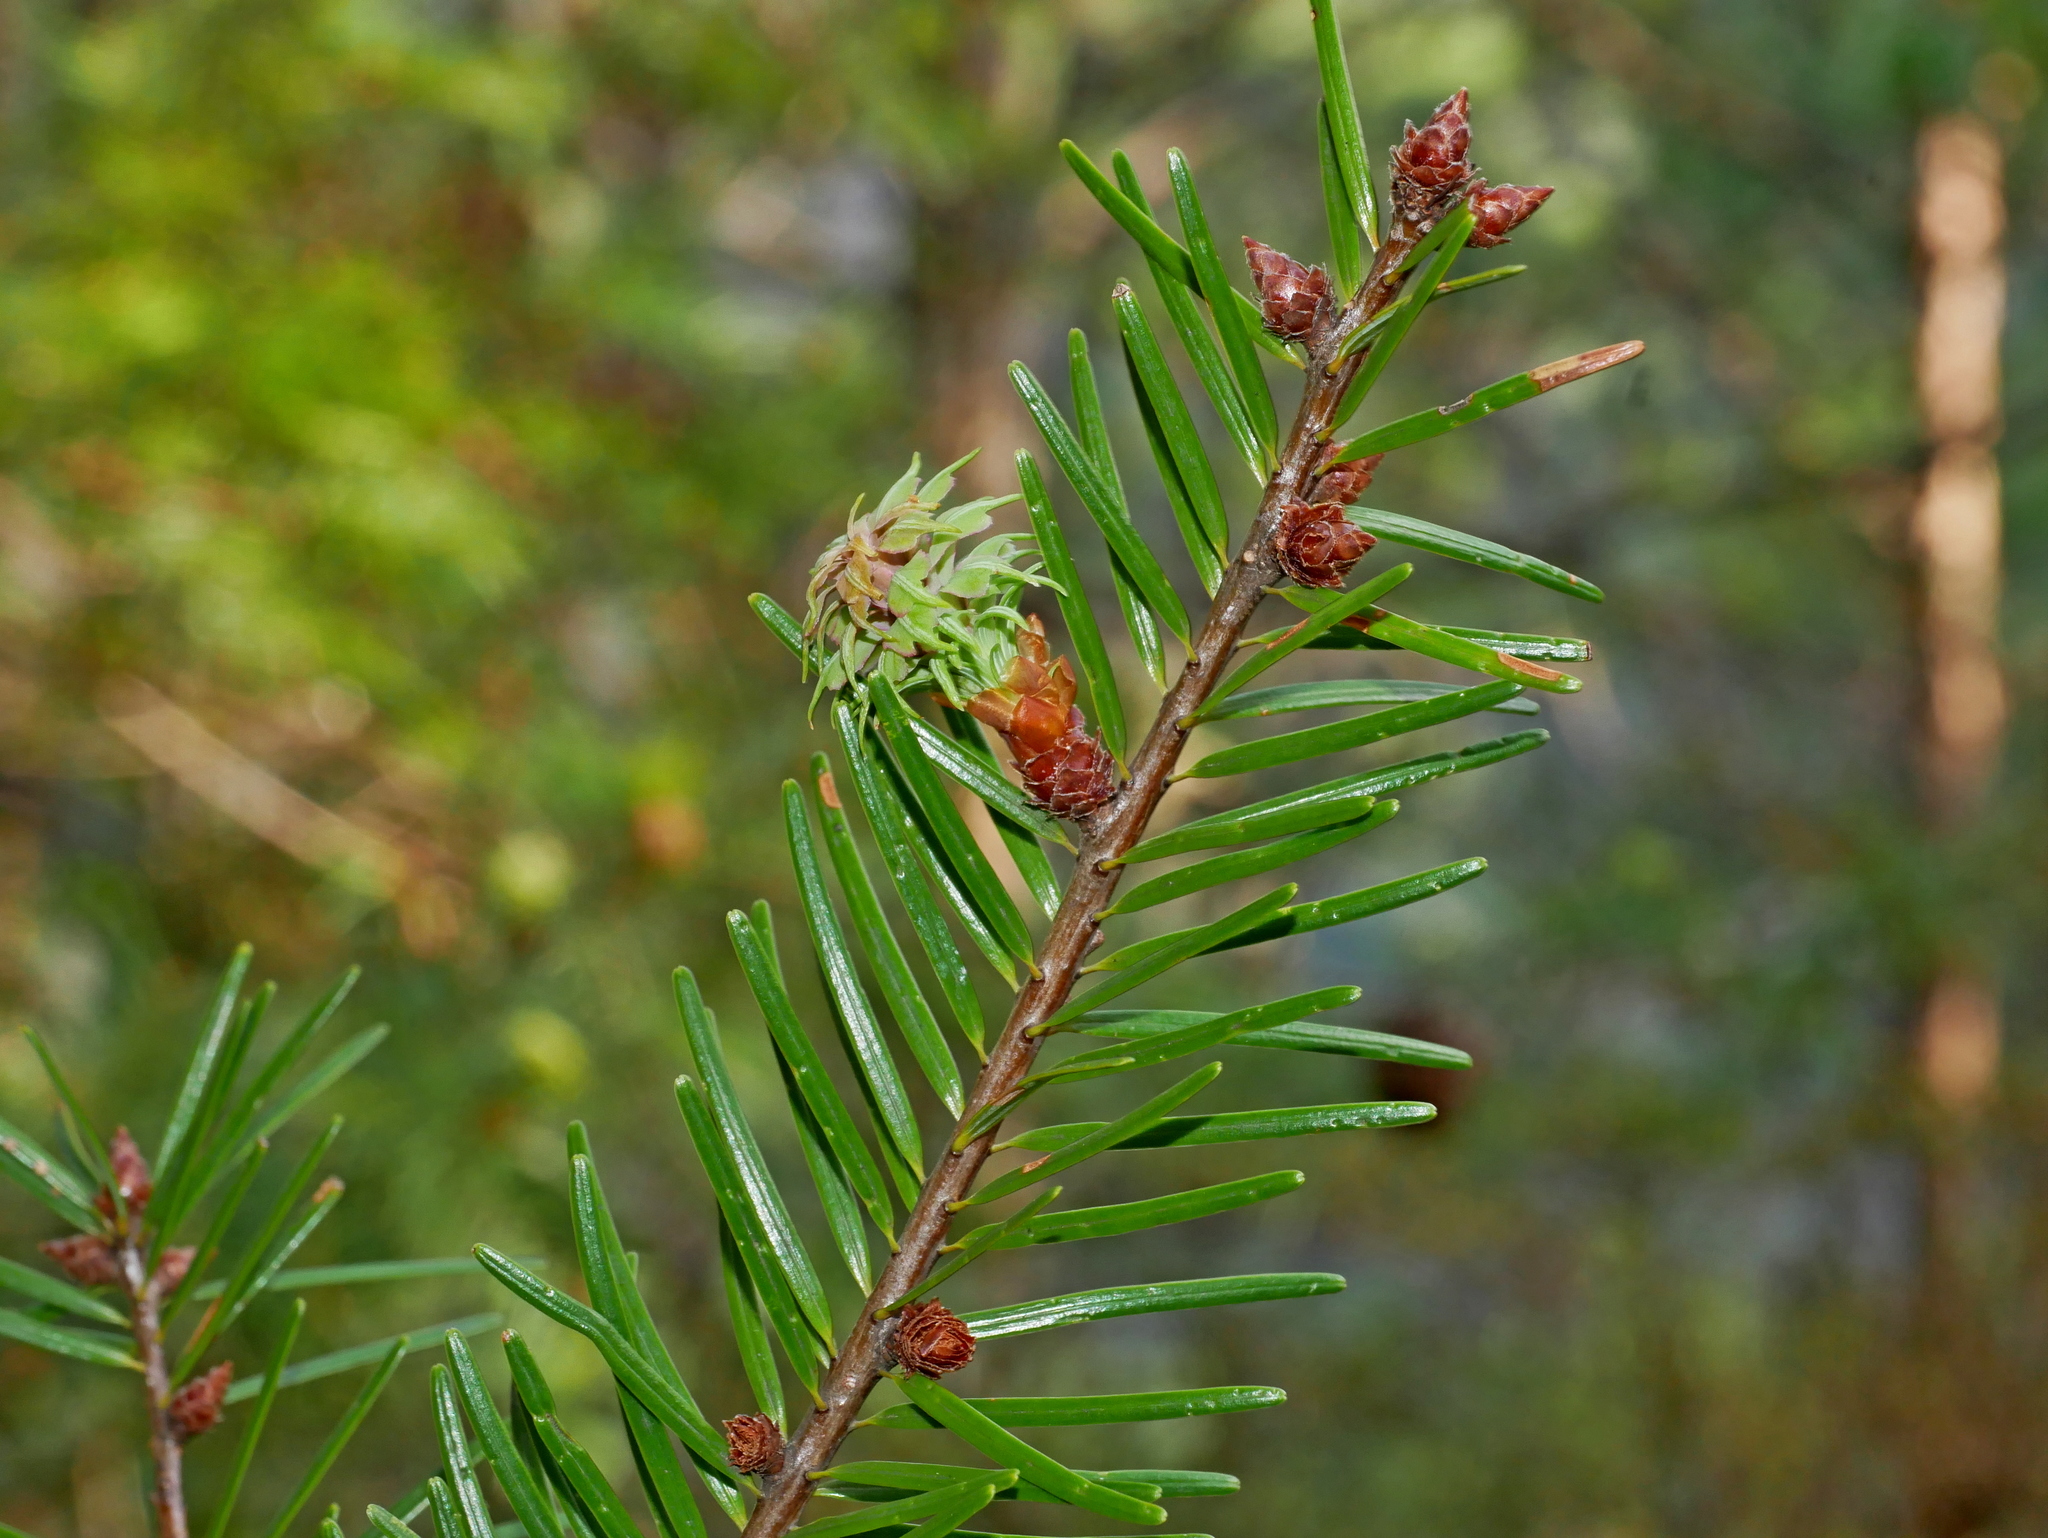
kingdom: Plantae
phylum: Tracheophyta
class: Pinopsida
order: Pinales
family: Pinaceae
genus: Pseudotsuga
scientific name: Pseudotsuga sinensis
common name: Chinese douglas-fir
